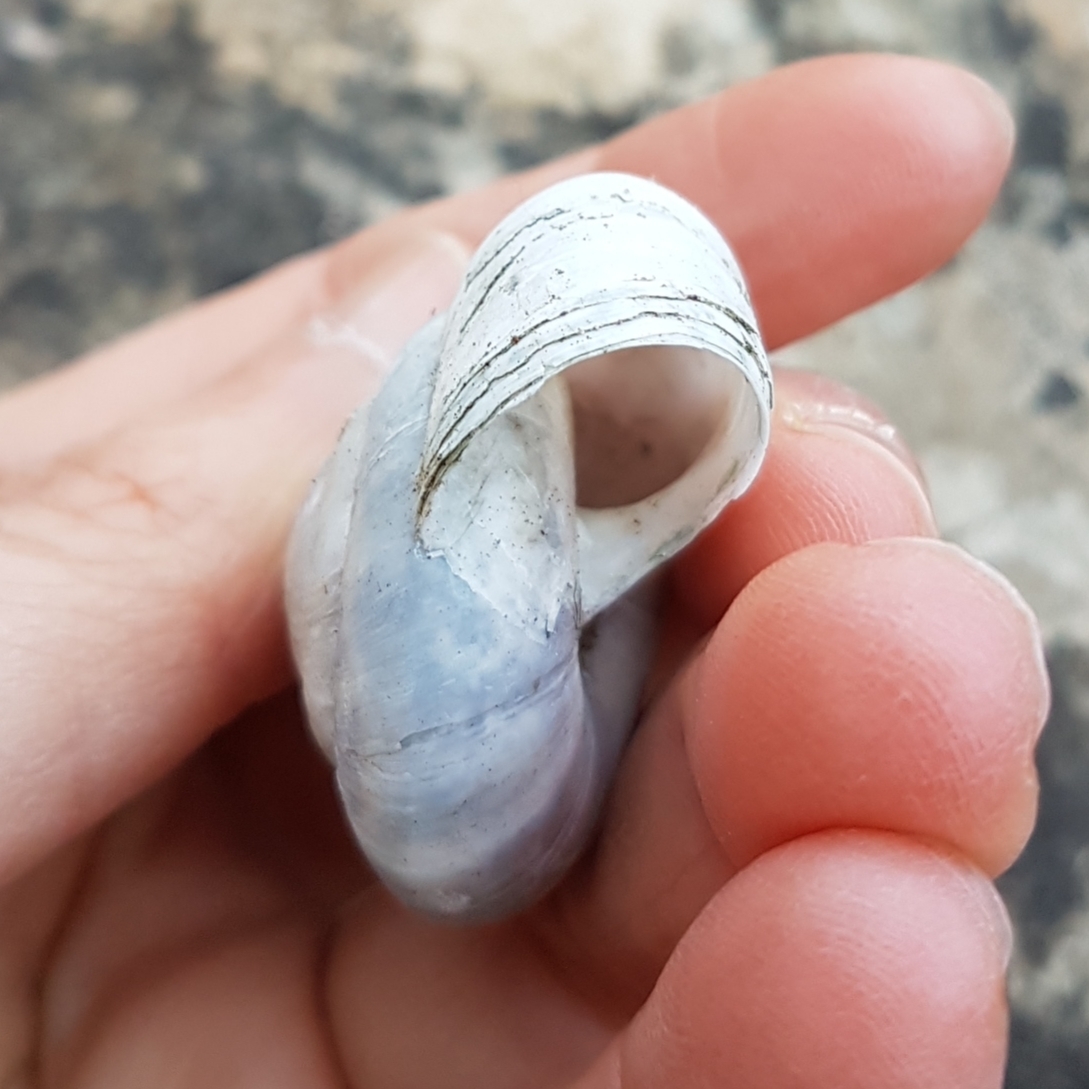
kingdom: Animalia
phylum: Mollusca
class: Gastropoda
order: Stylommatophora
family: Zonitidae
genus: Zonites
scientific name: Zonites algirus
